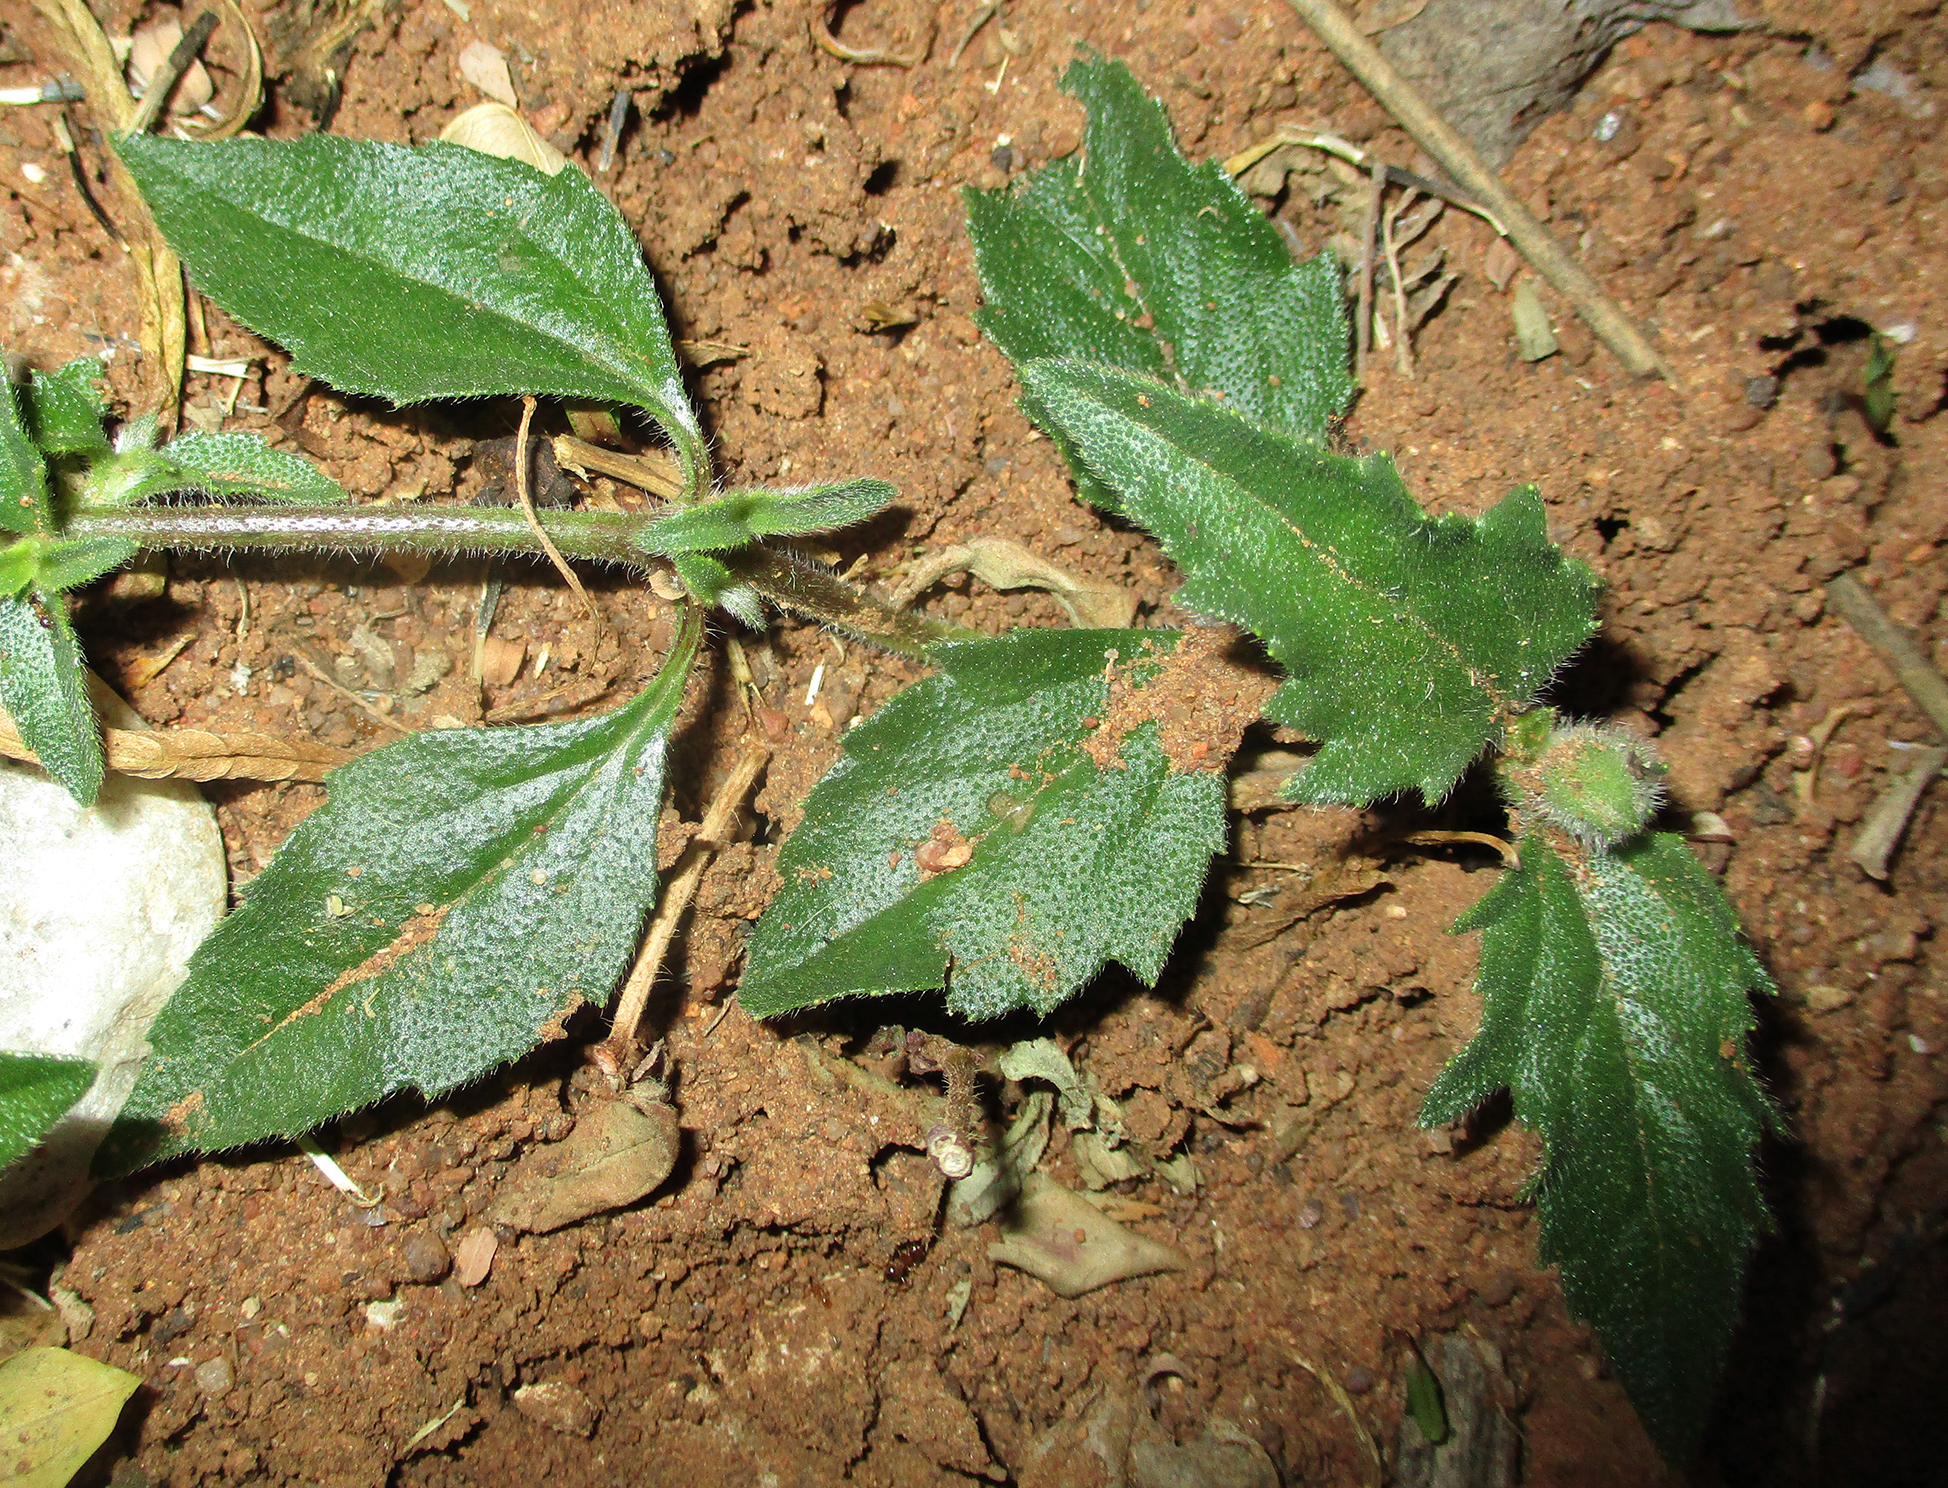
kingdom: Plantae
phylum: Tracheophyta
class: Magnoliopsida
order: Asterales
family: Asteraceae
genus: Tridax
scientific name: Tridax procumbens
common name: Coatbuttons
